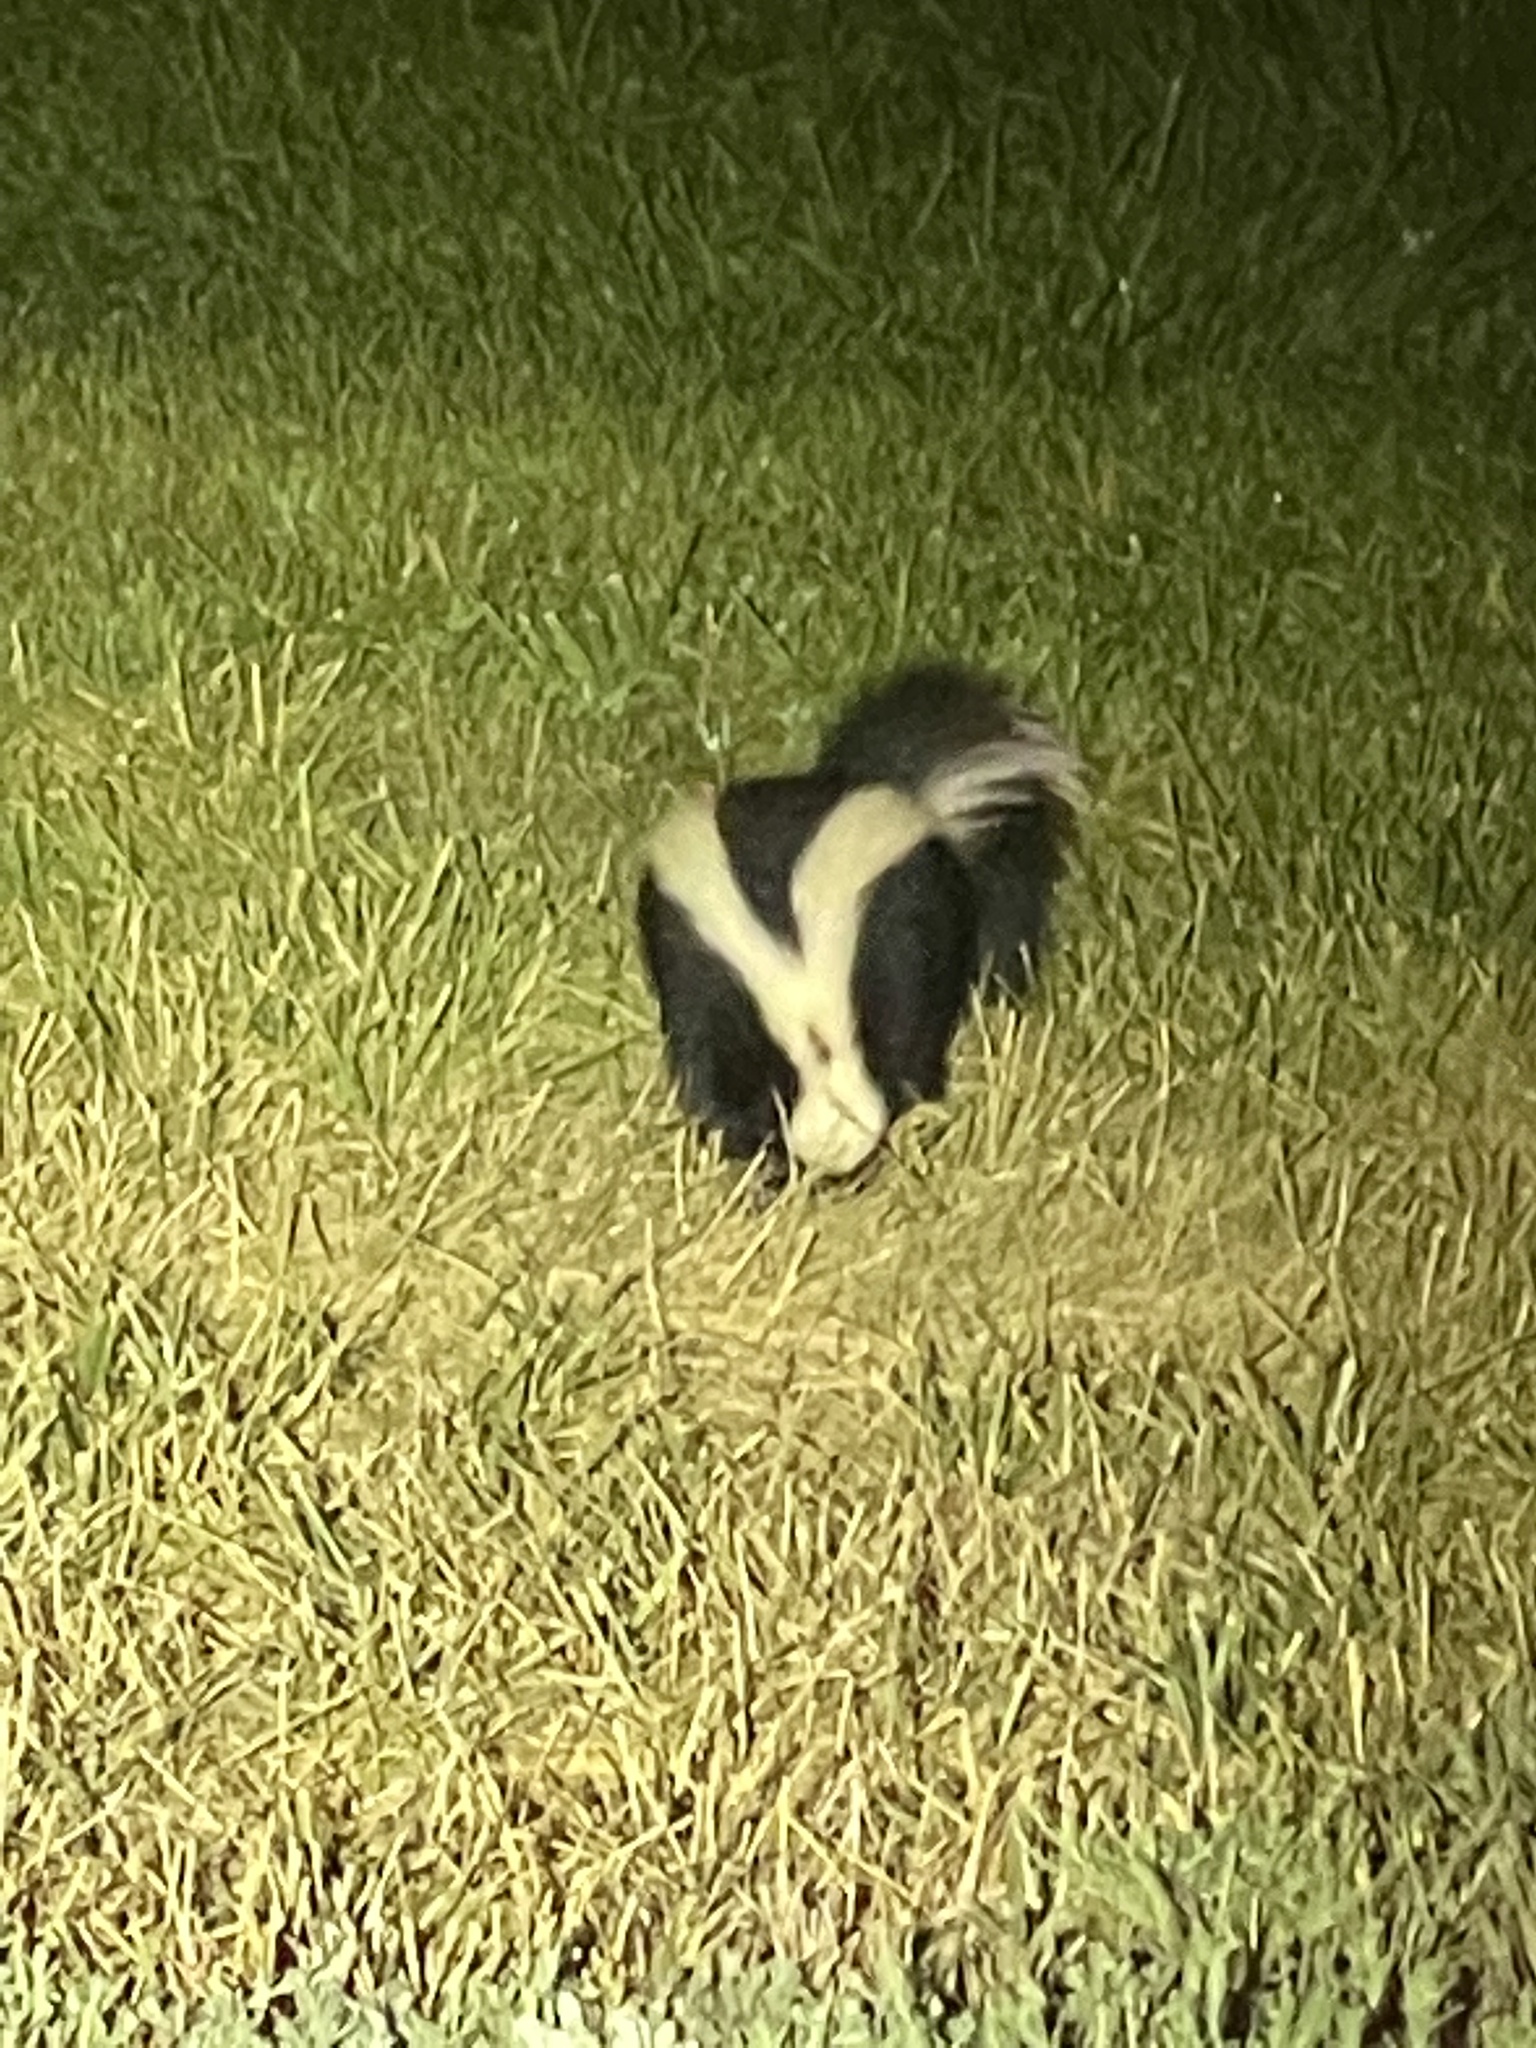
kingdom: Animalia
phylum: Chordata
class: Mammalia
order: Carnivora
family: Mephitidae
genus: Mephitis
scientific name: Mephitis mephitis
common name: Striped skunk
